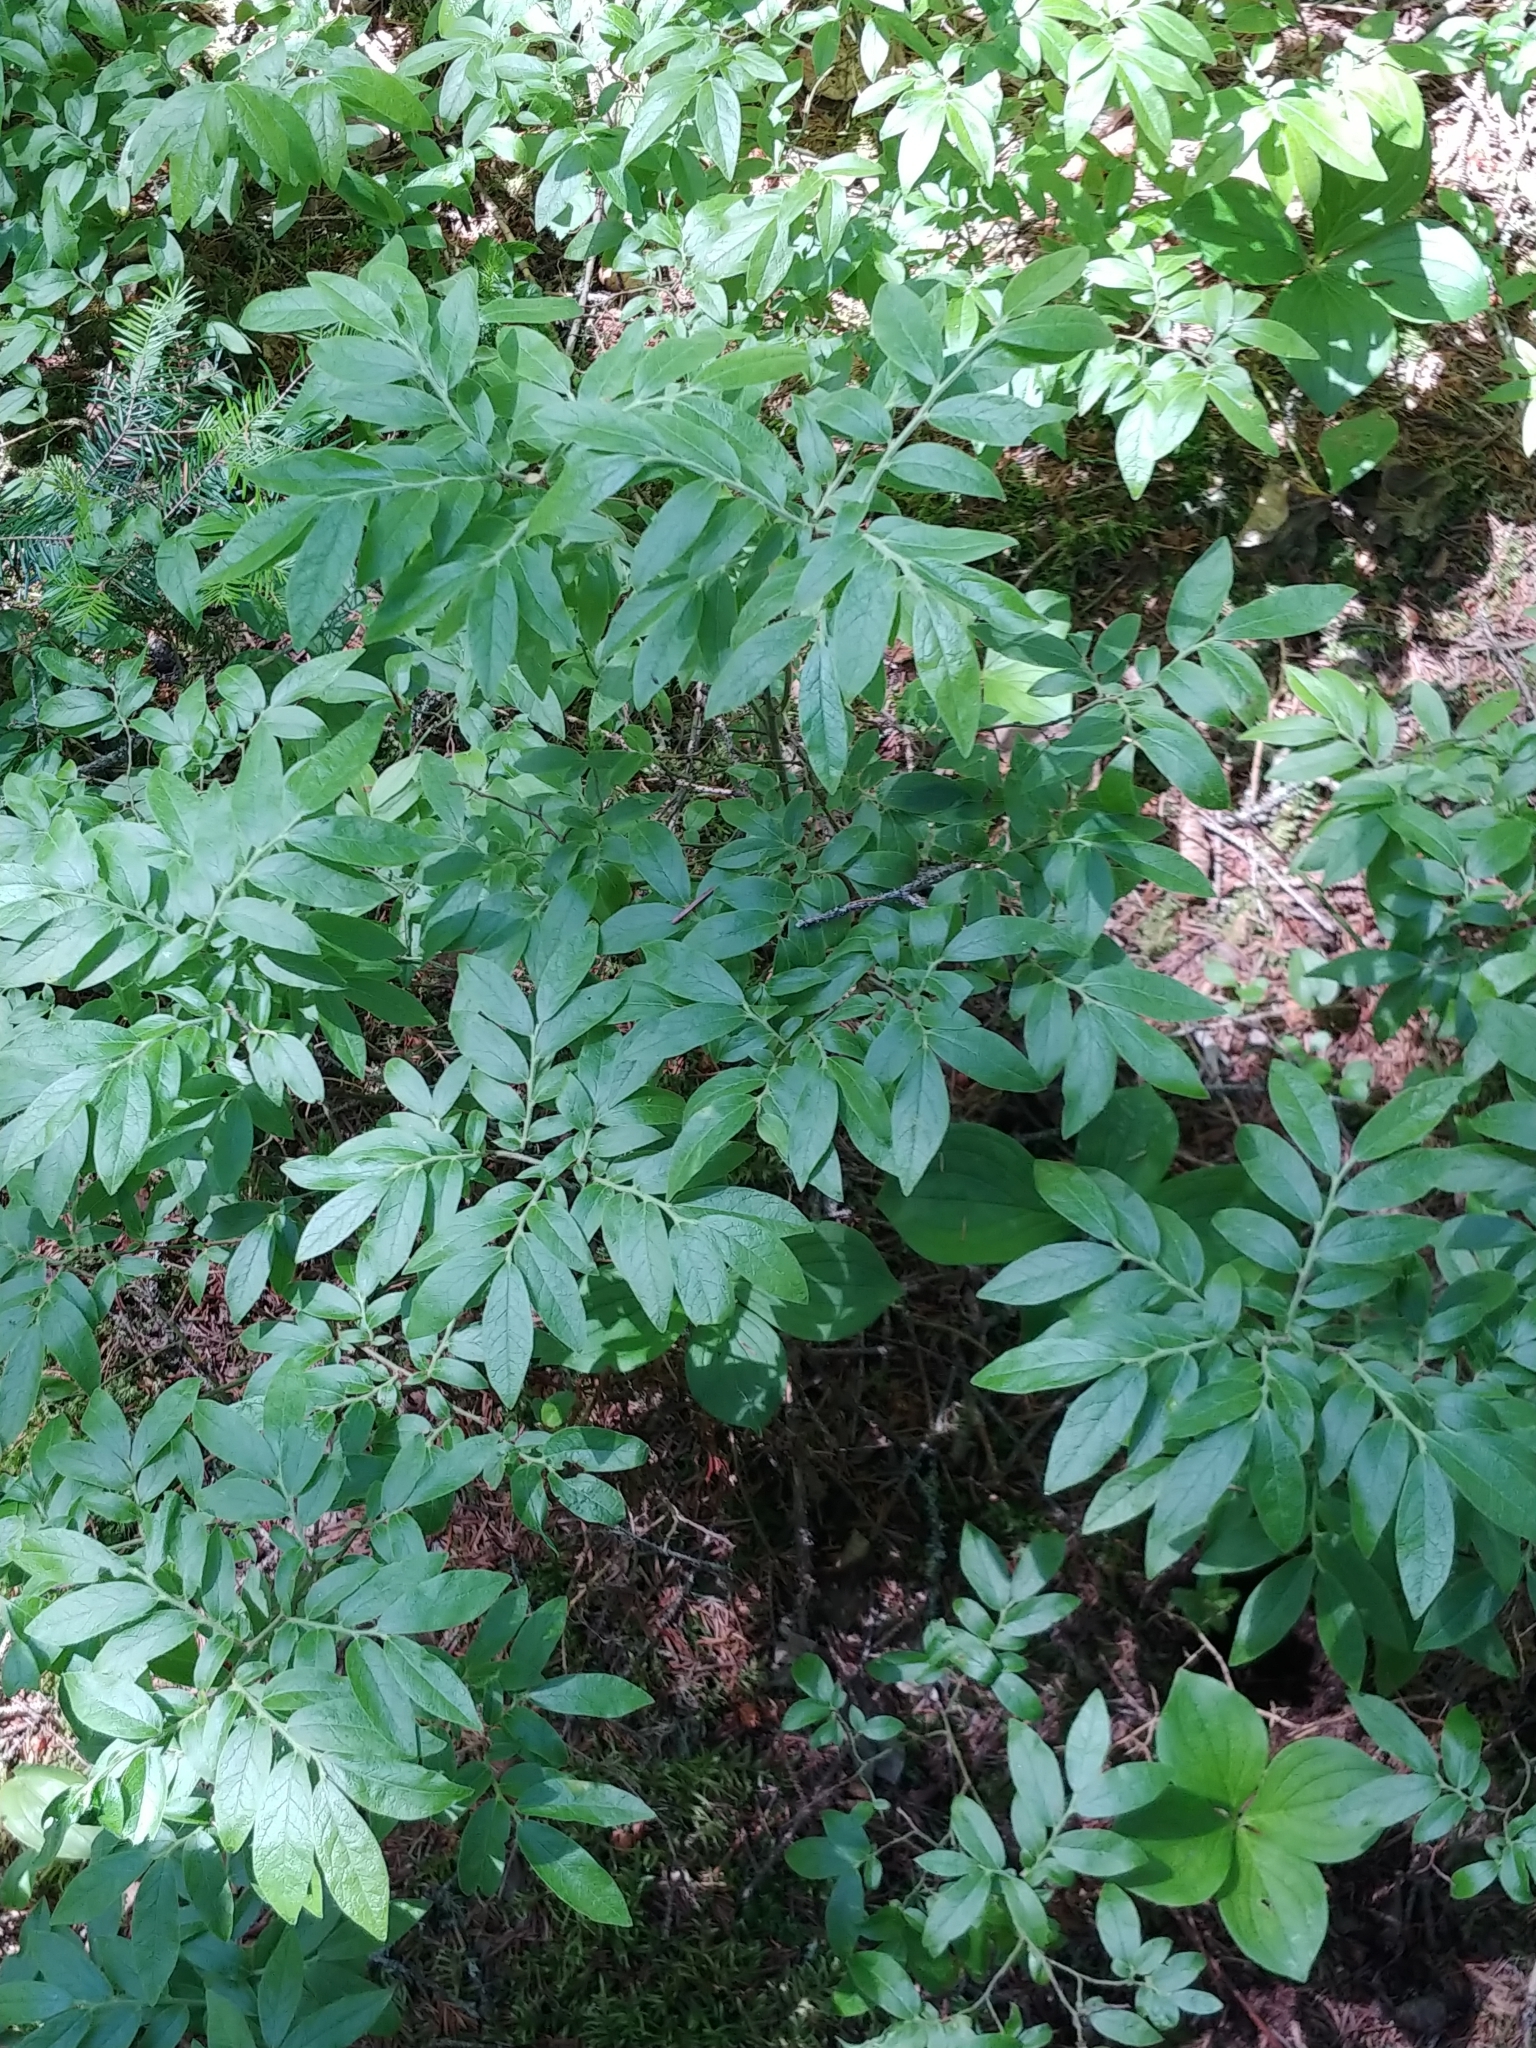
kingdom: Plantae
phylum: Tracheophyta
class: Magnoliopsida
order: Ericales
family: Ericaceae
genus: Vaccinium
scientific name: Vaccinium myrtilloides
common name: Canada blueberry
